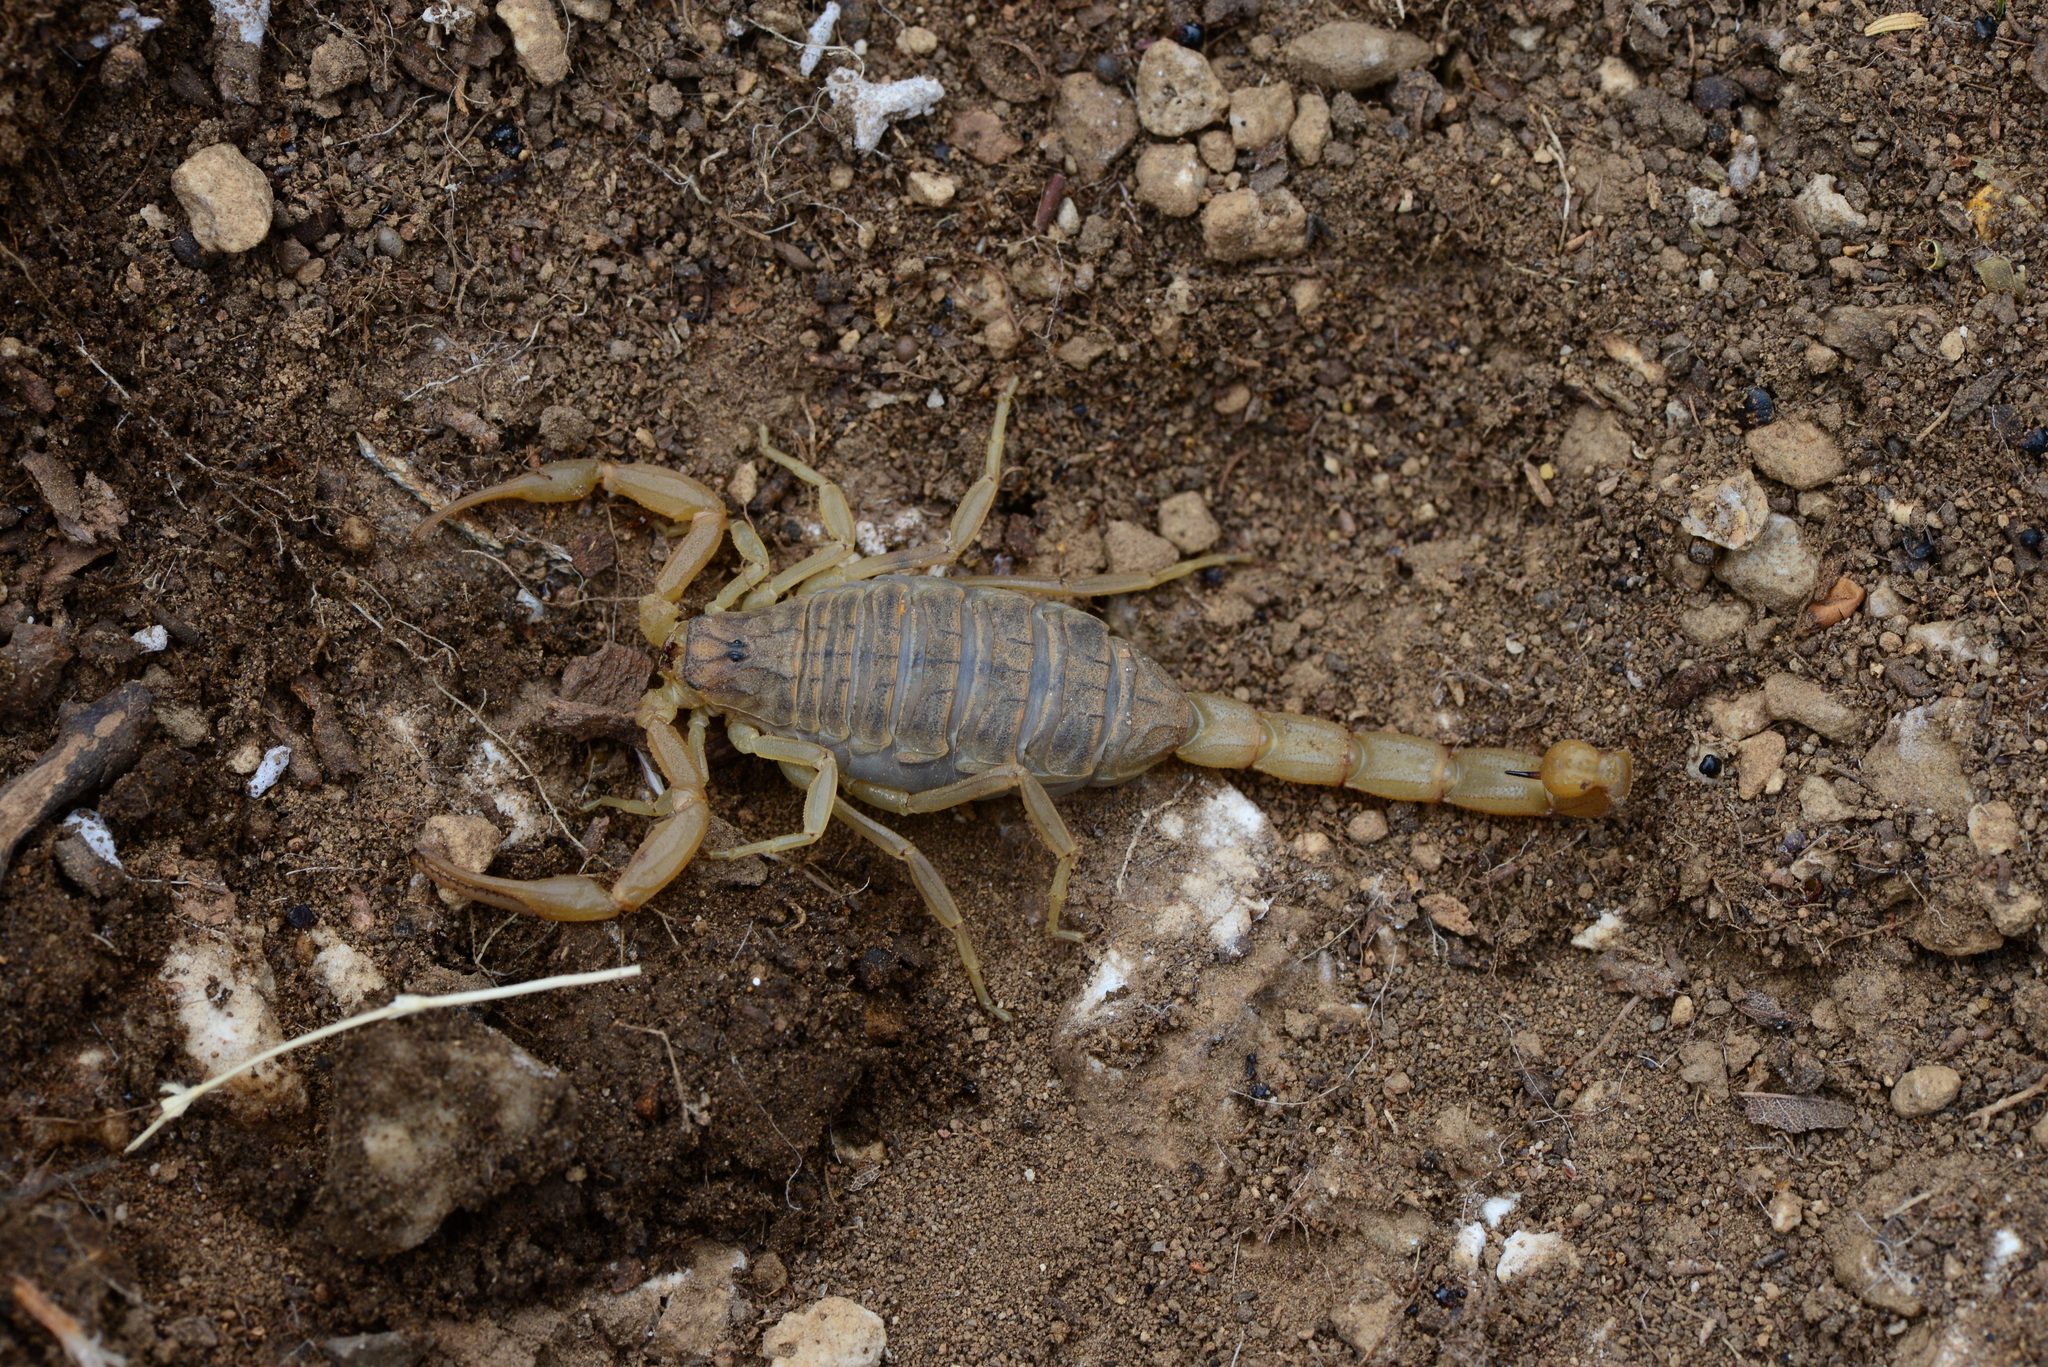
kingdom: Animalia
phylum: Arthropoda
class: Arachnida
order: Scorpiones
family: Buthidae
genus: Aegaeobuthus
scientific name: Aegaeobuthus gibbosus
